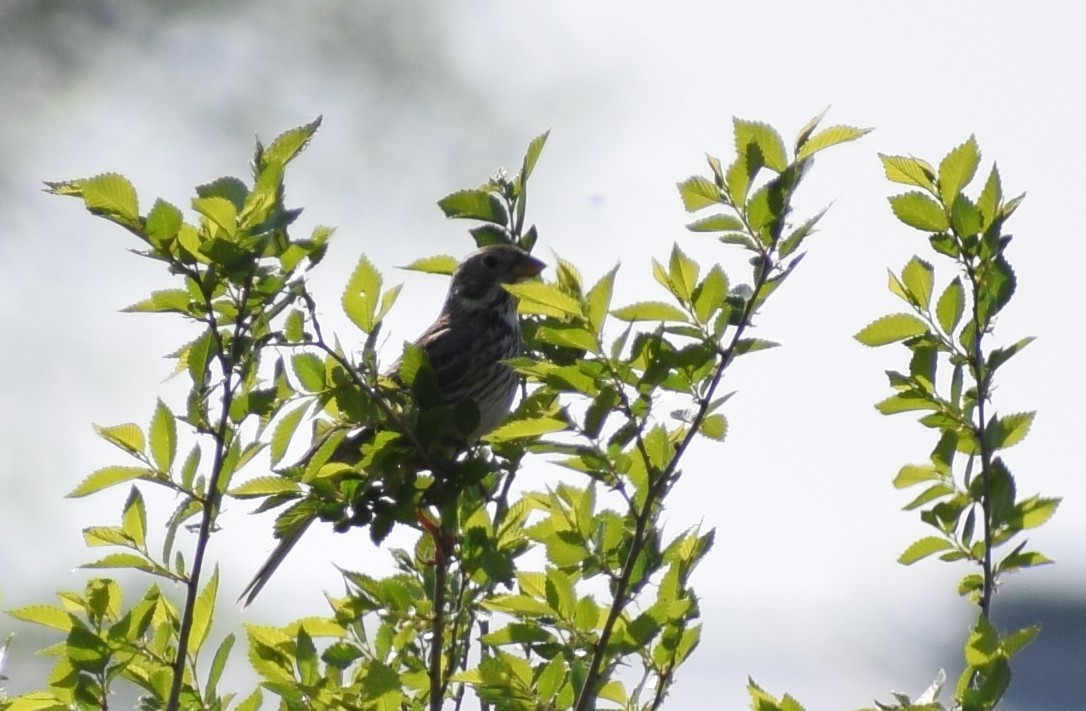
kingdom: Animalia
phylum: Chordata
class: Aves
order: Passeriformes
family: Emberizidae
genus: Emberiza
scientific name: Emberiza calandra
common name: Corn bunting
